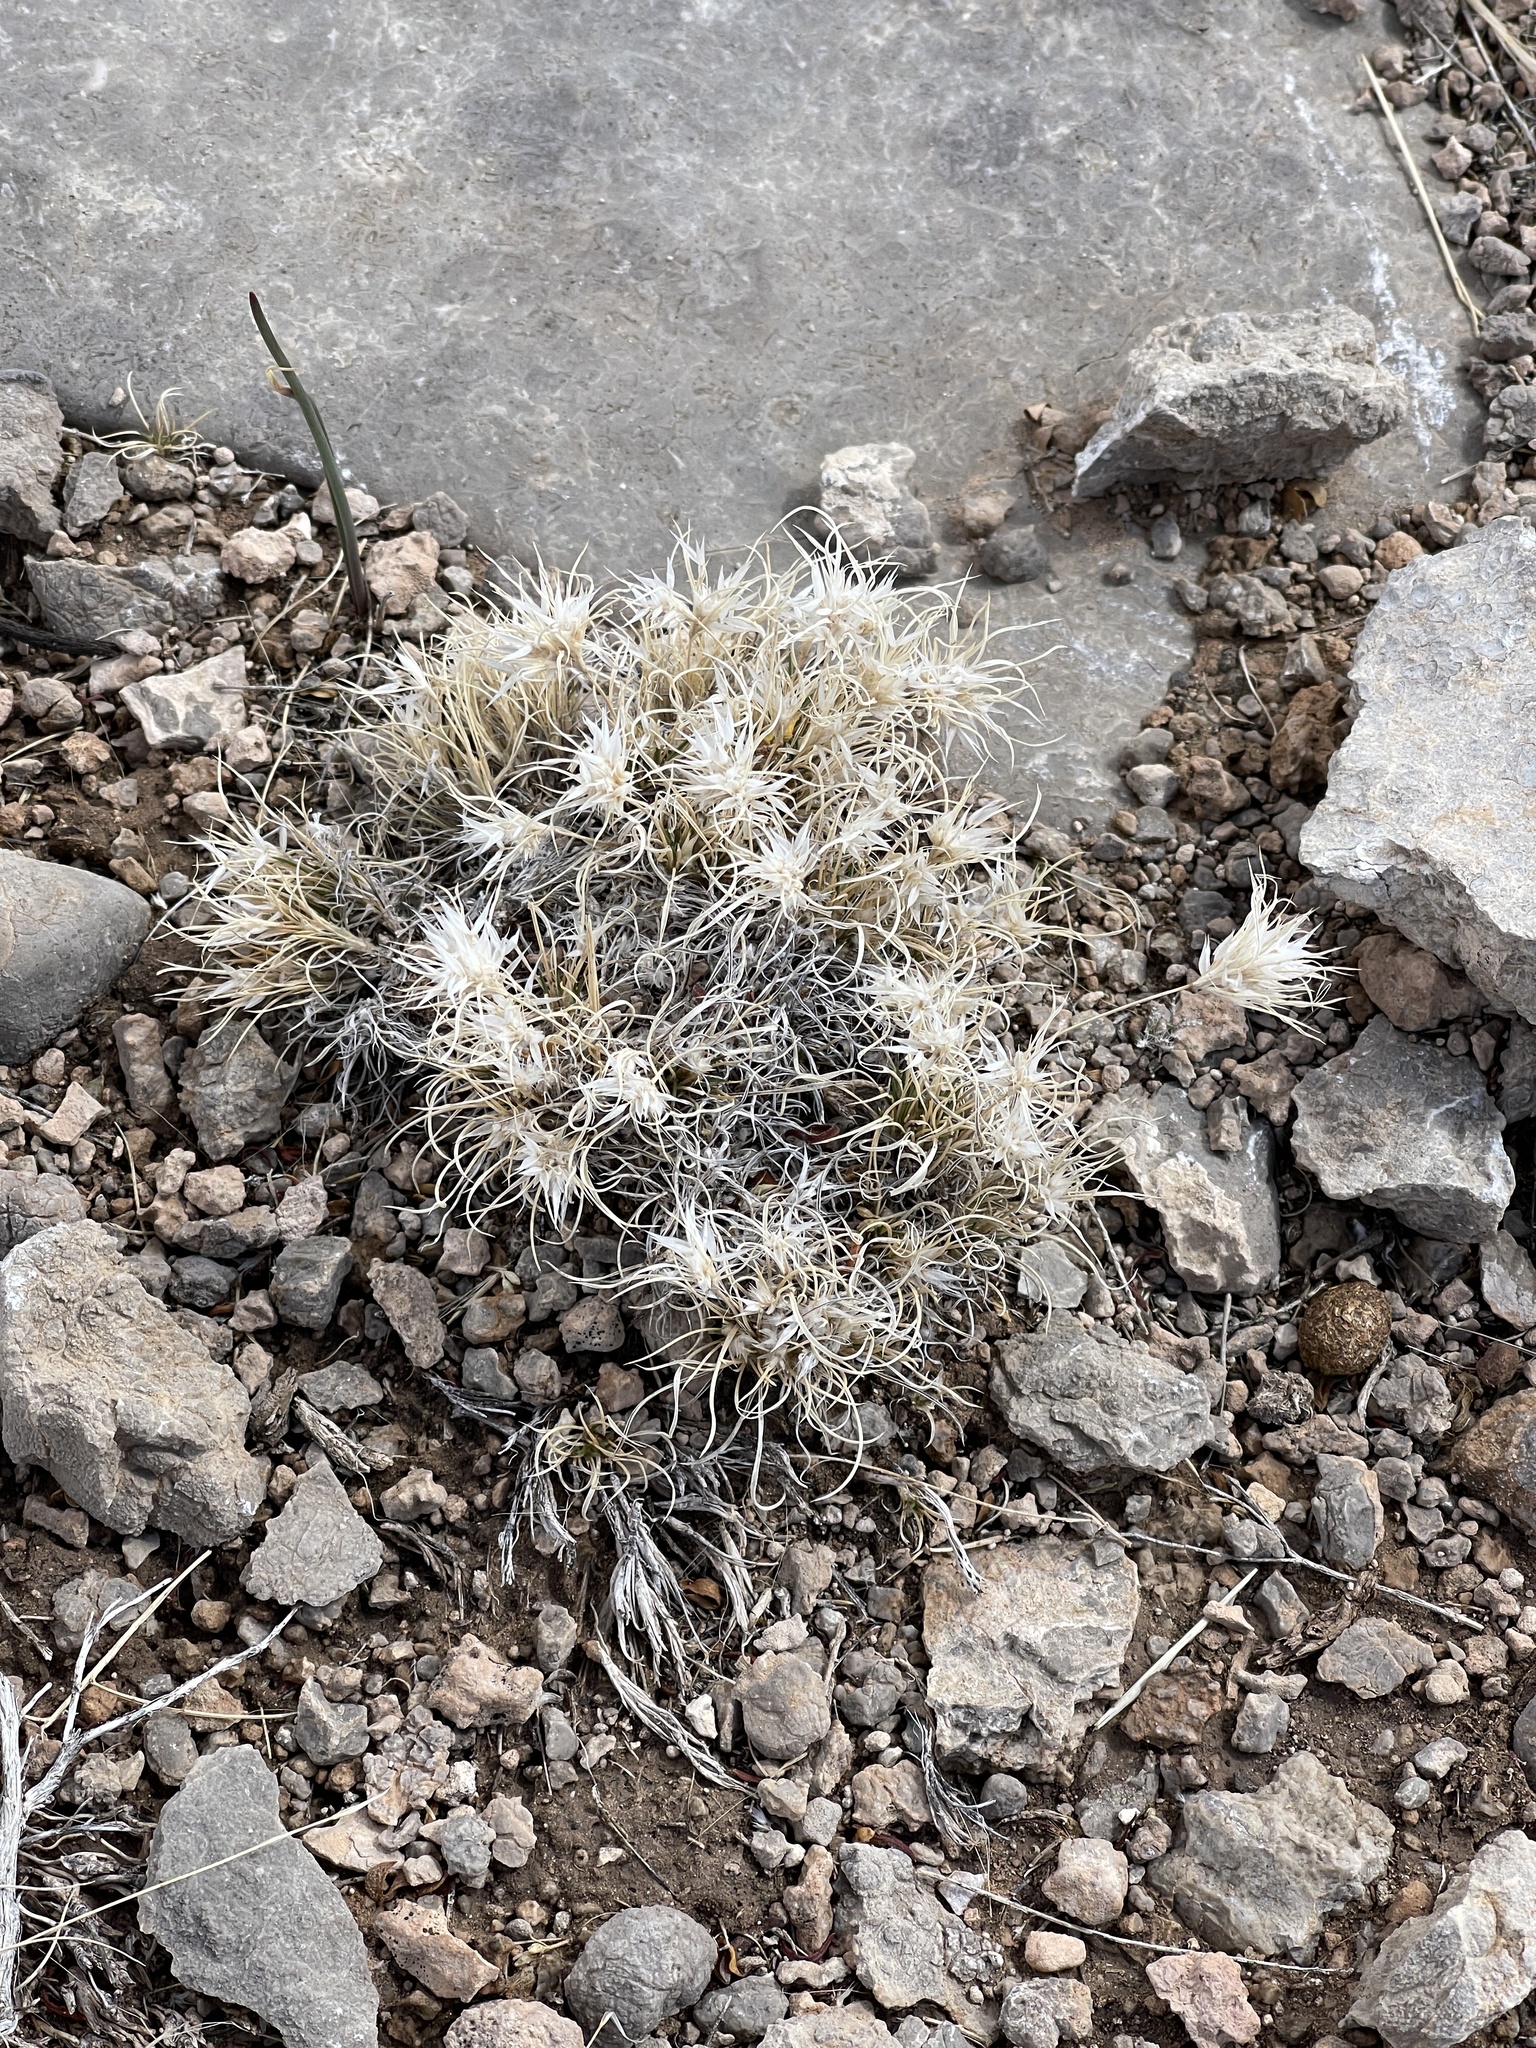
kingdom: Plantae
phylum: Tracheophyta
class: Liliopsida
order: Poales
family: Poaceae
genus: Dasyochloa
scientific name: Dasyochloa pulchella
